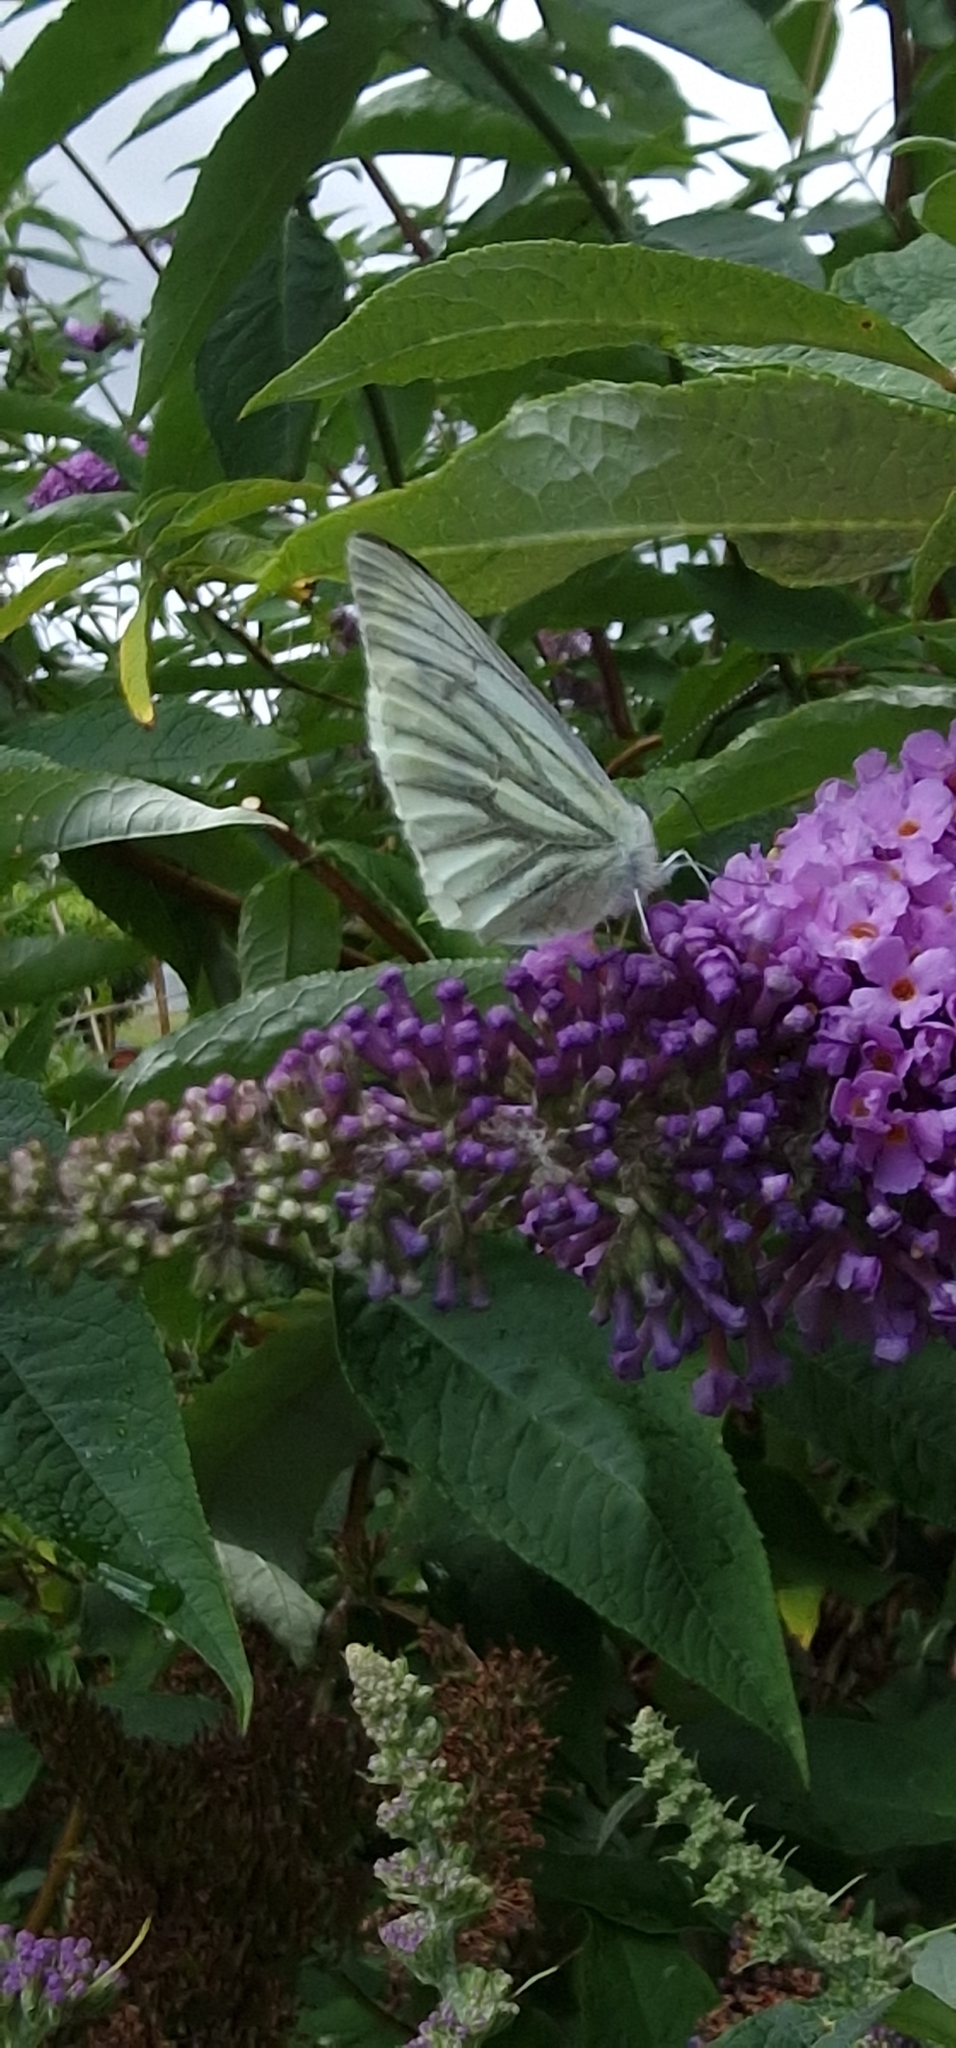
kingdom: Animalia
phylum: Arthropoda
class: Insecta
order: Lepidoptera
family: Pieridae
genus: Pieris
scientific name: Pieris napi
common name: Green-veined white
